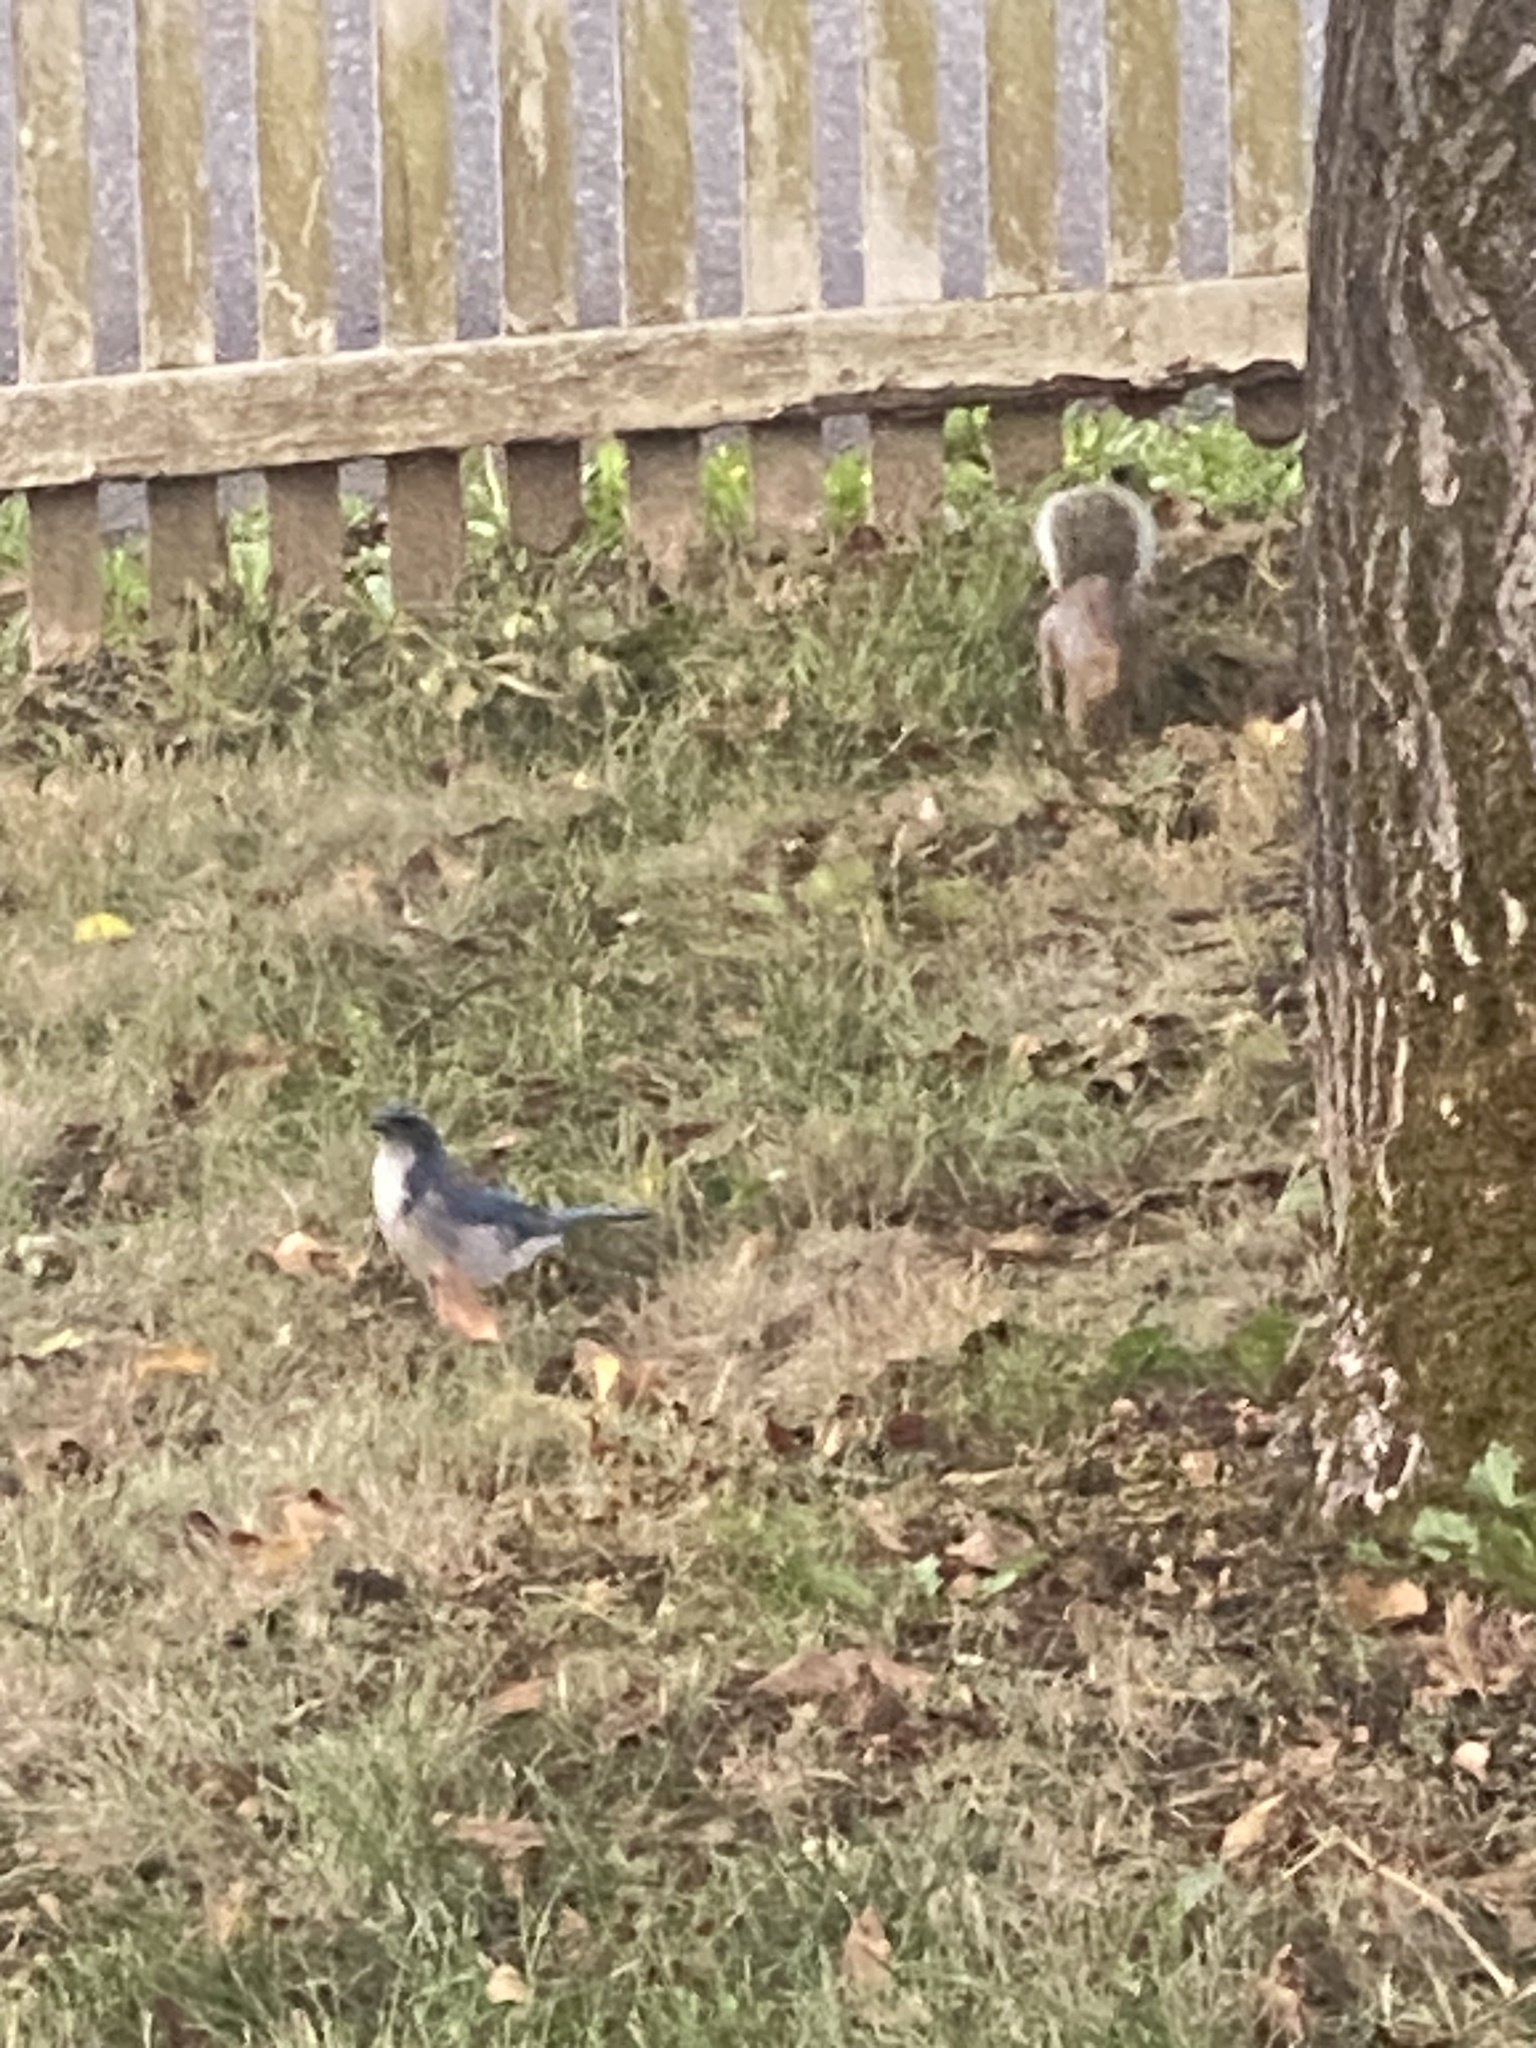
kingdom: Animalia
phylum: Chordata
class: Aves
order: Passeriformes
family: Corvidae
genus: Aphelocoma
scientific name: Aphelocoma californica
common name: California scrub-jay
